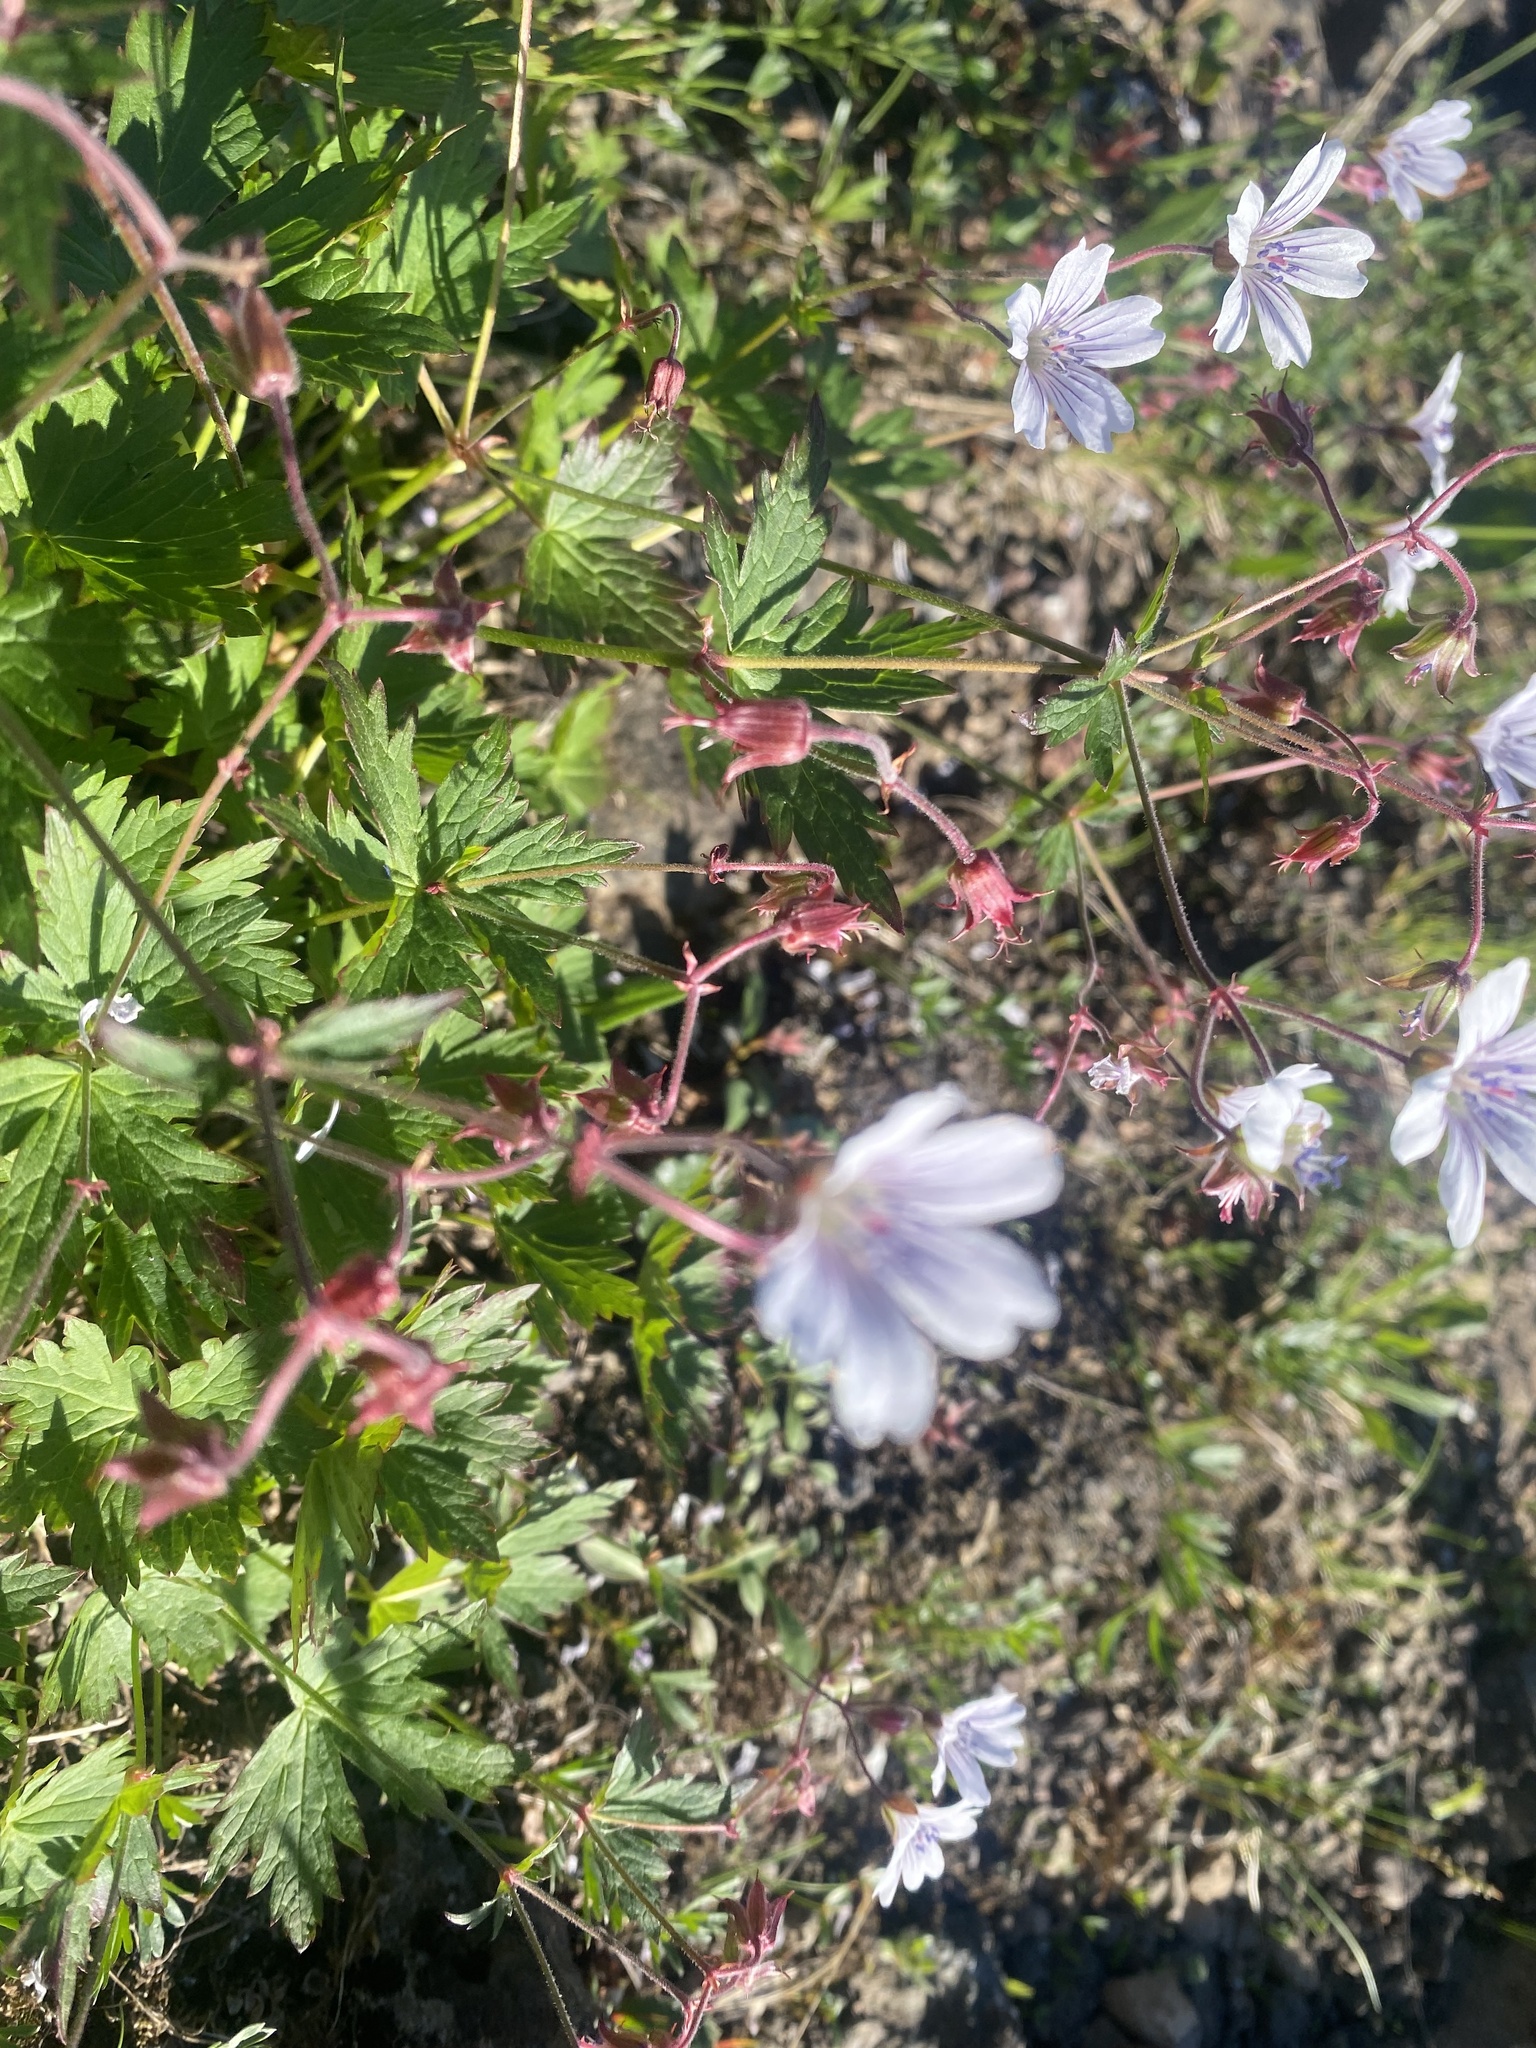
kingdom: Plantae
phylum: Tracheophyta
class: Magnoliopsida
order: Geraniales
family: Geraniaceae
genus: Geranium
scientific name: Geranium sylvaticum
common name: Wood crane's-bill
